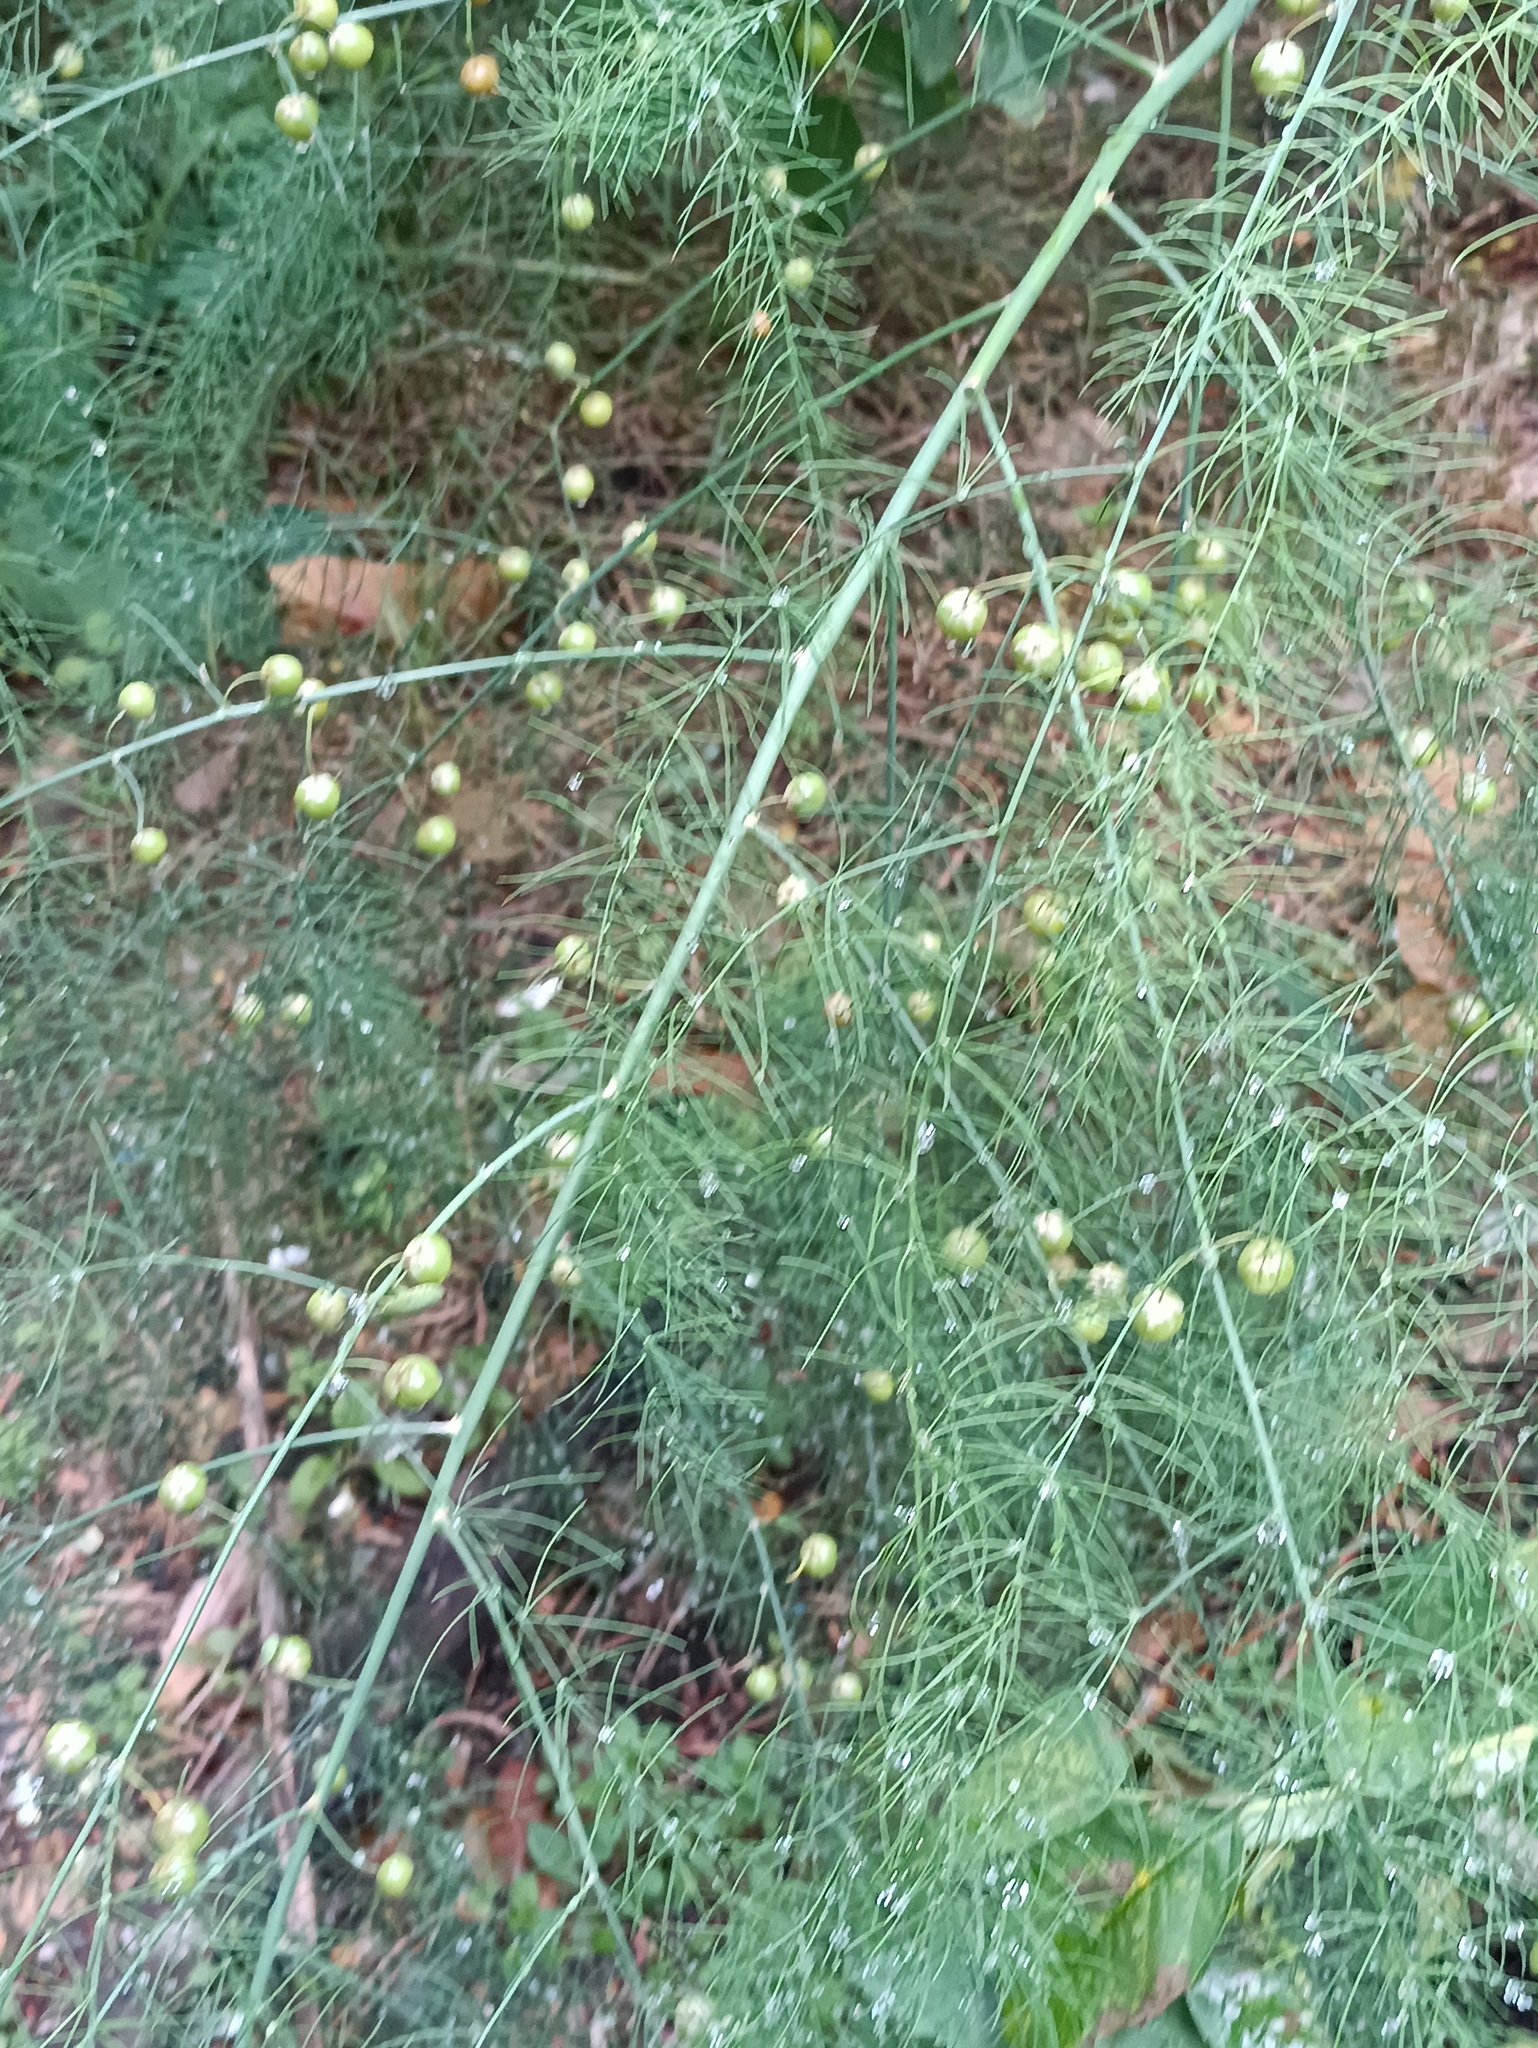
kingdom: Plantae
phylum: Tracheophyta
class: Liliopsida
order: Asparagales
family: Asparagaceae
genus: Asparagus
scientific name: Asparagus officinalis
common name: Garden asparagus
